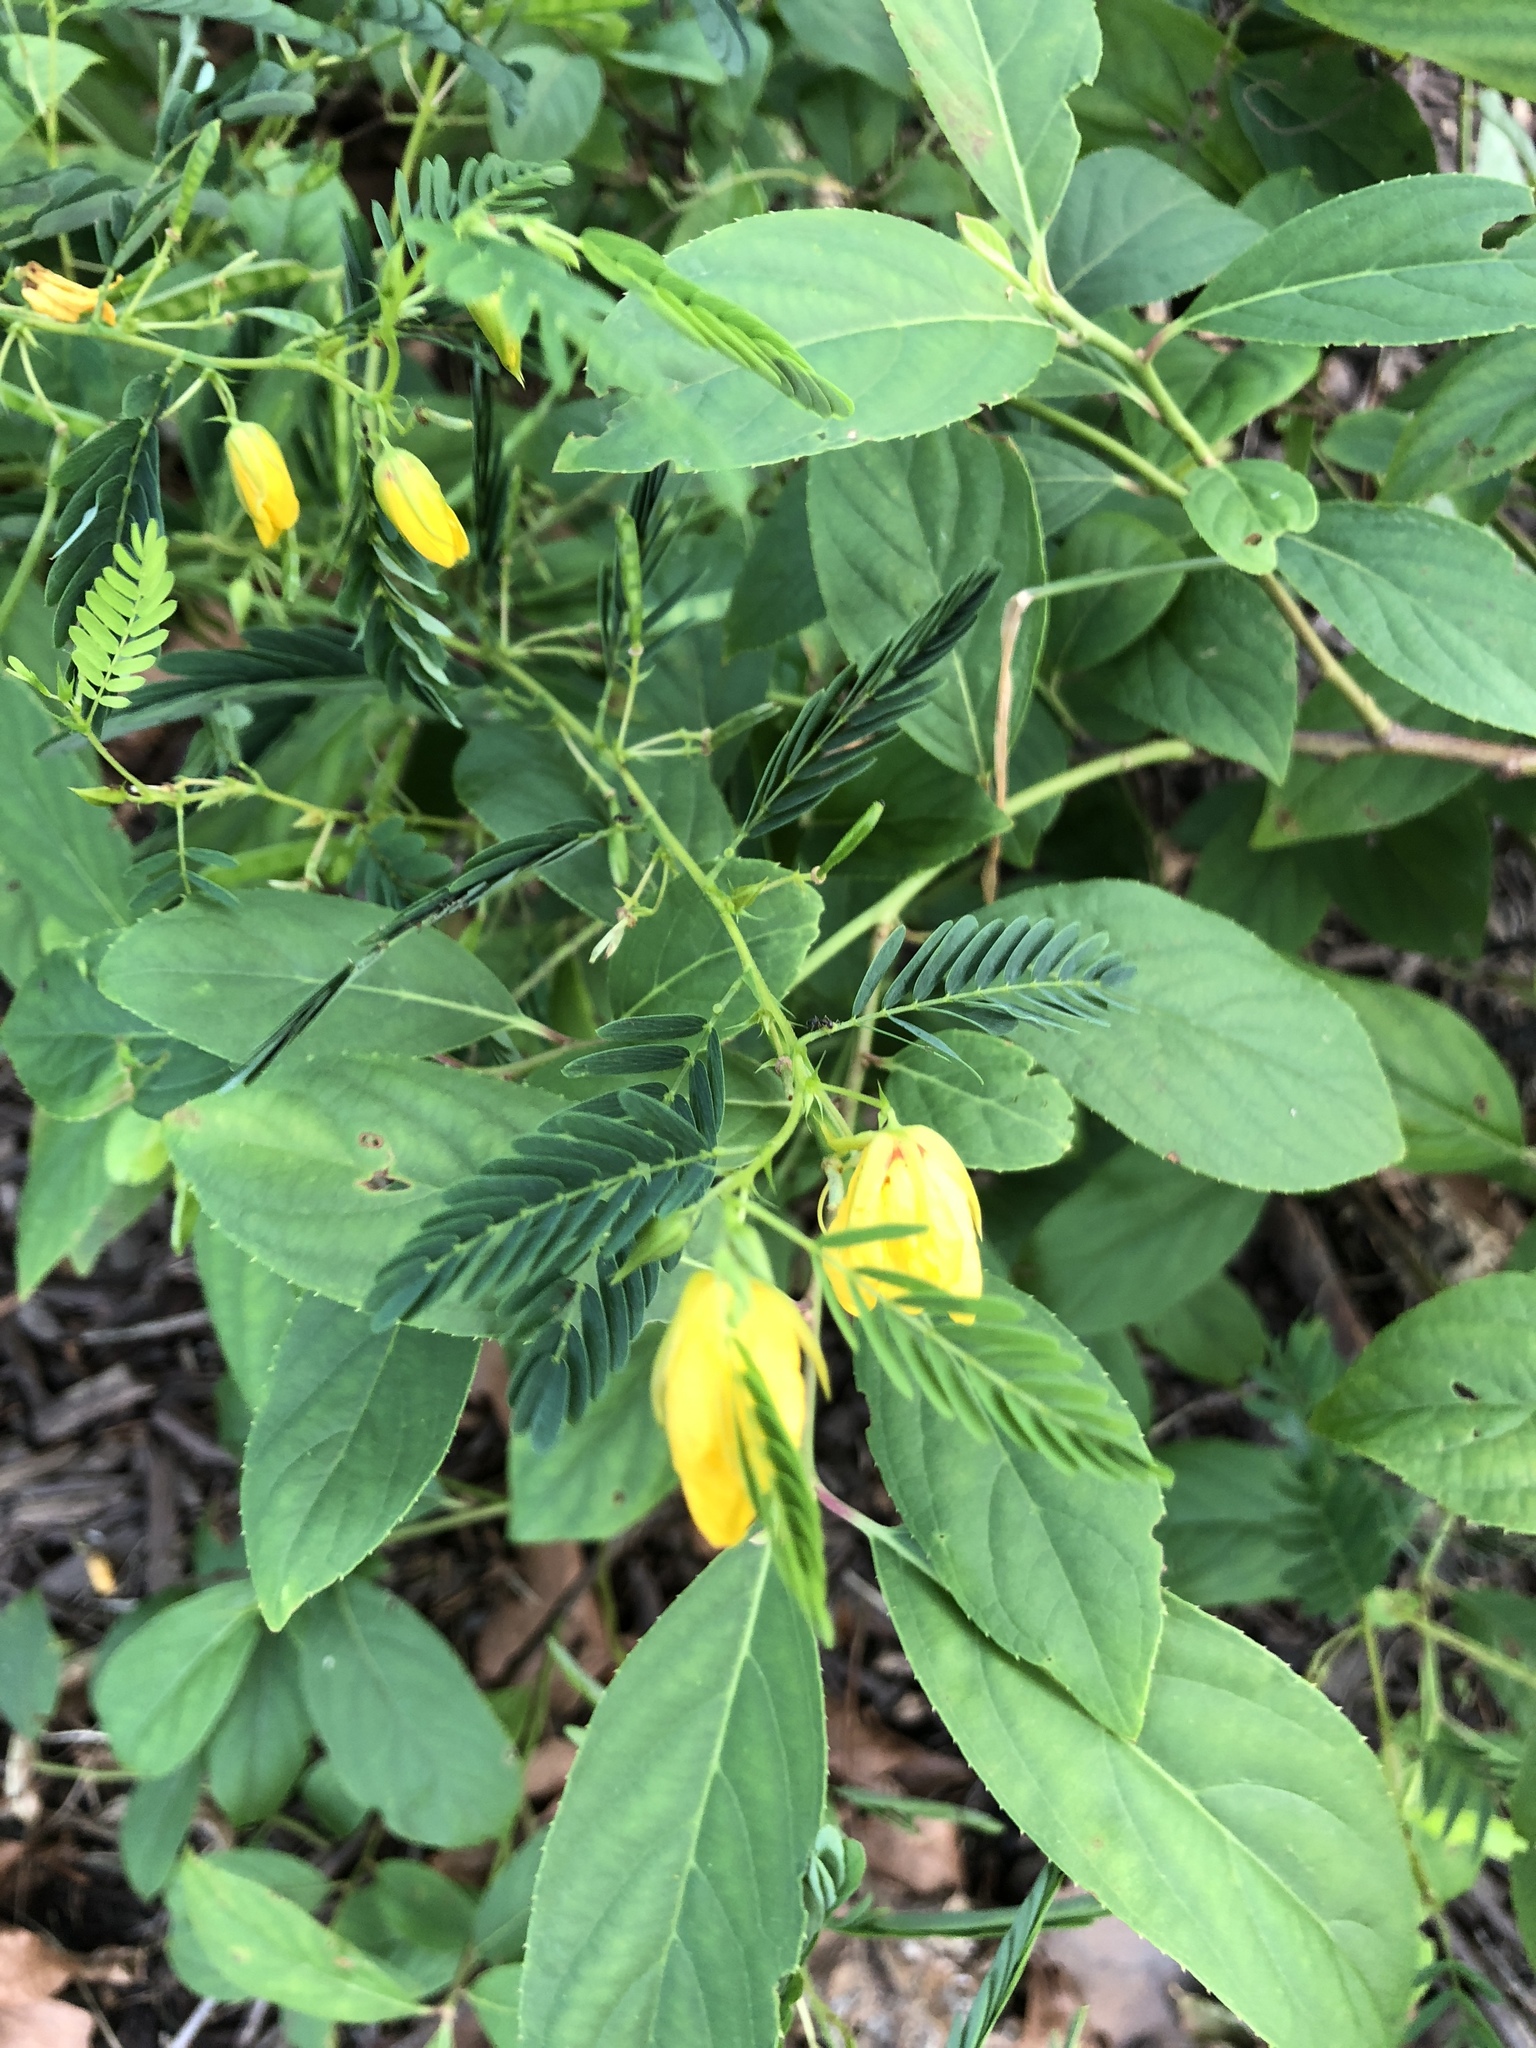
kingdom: Plantae
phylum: Tracheophyta
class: Magnoliopsida
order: Fabales
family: Fabaceae
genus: Chamaecrista
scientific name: Chamaecrista fasciculata
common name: Golden cassia
